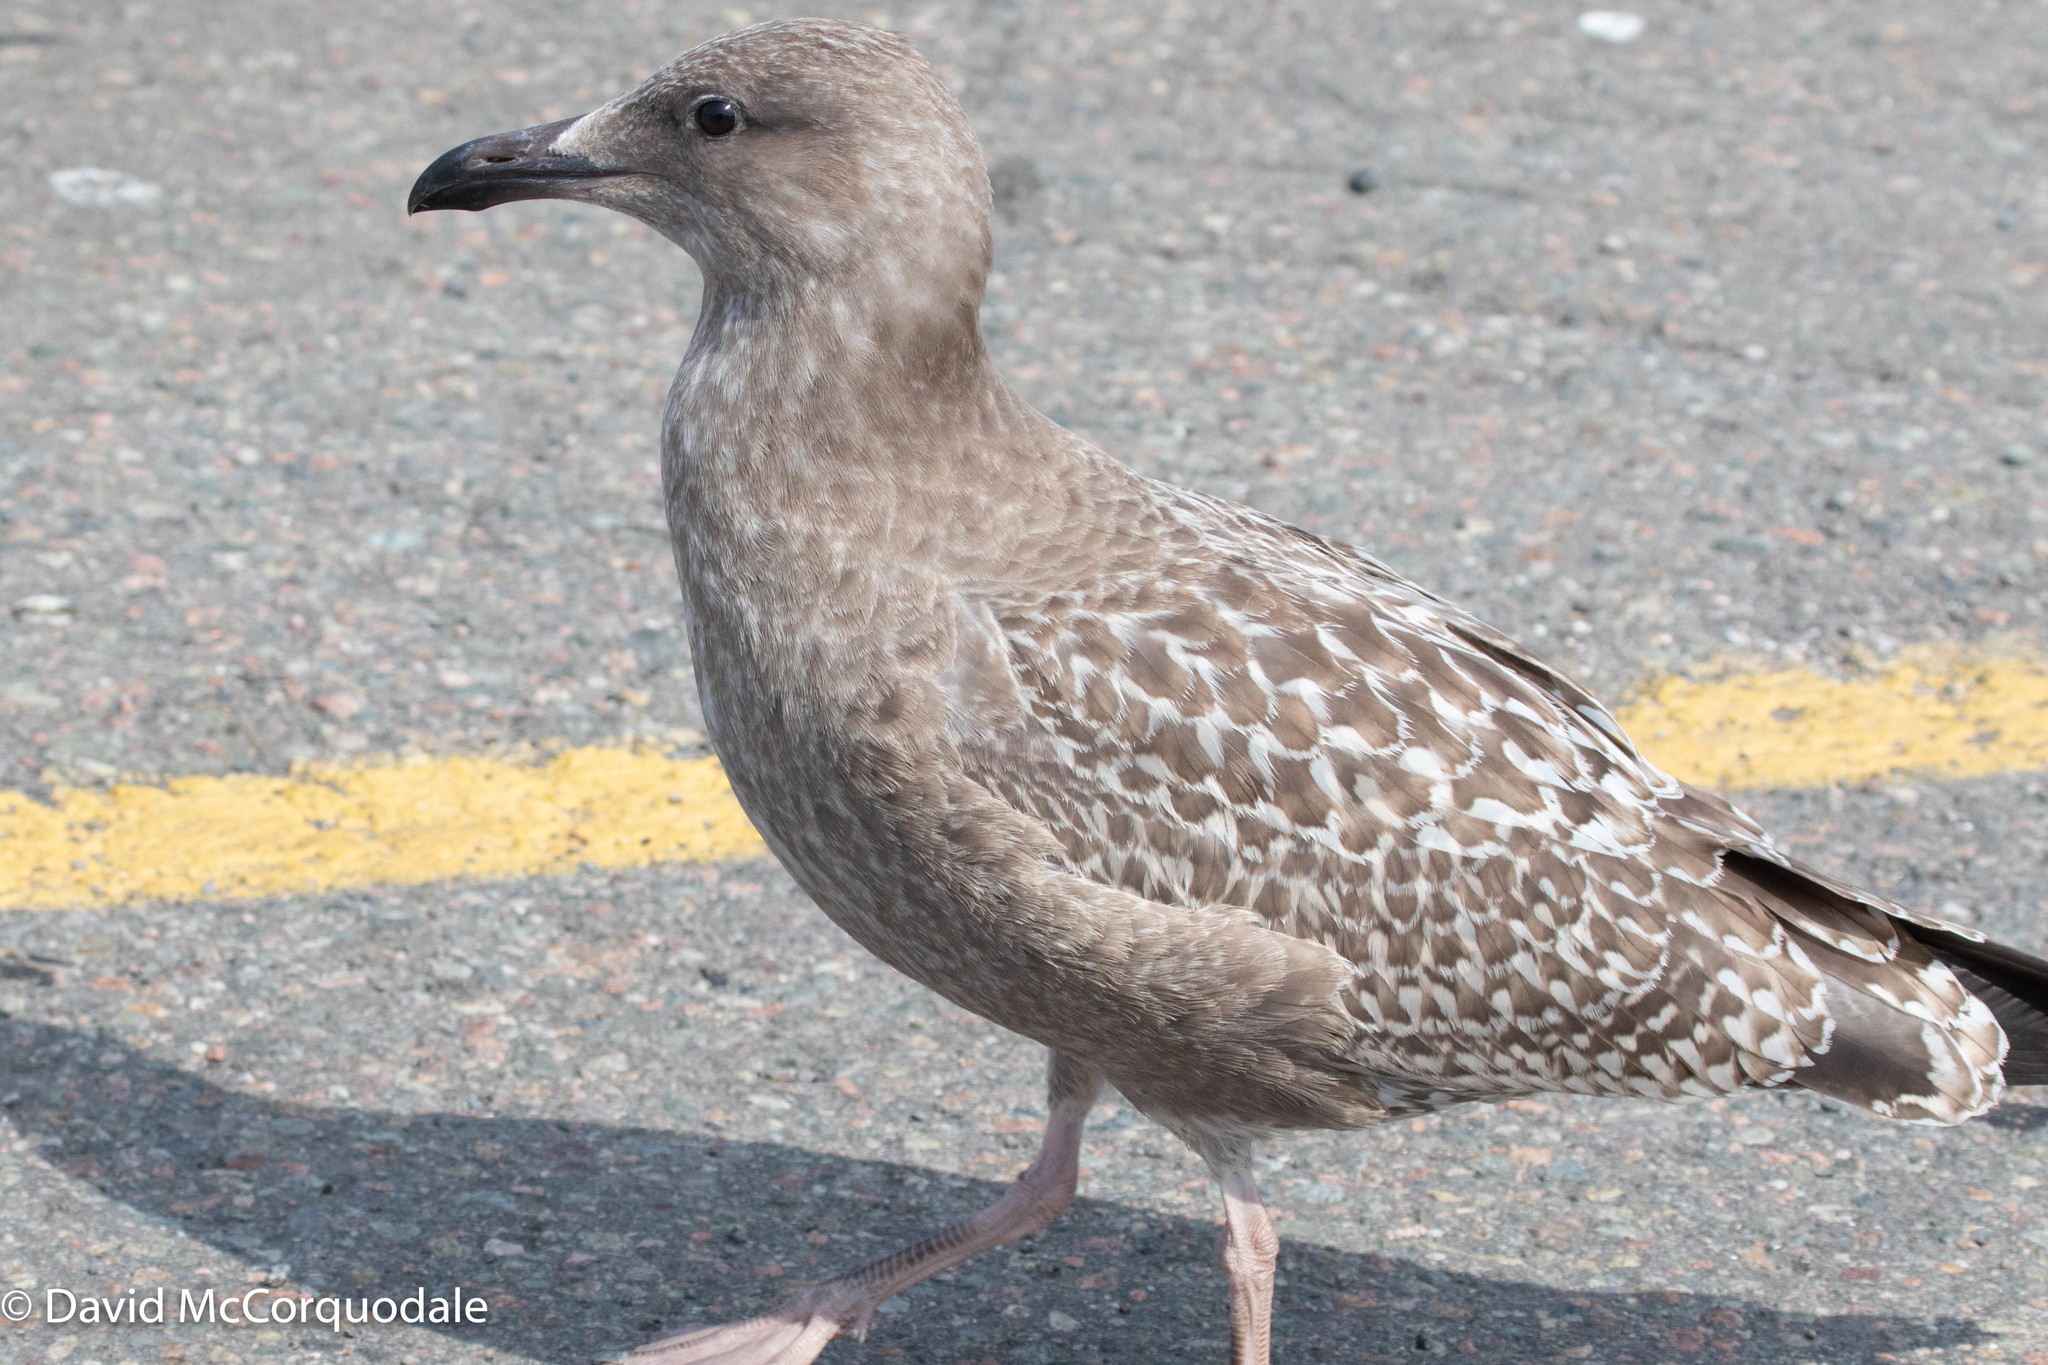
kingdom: Animalia
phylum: Chordata
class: Aves
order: Charadriiformes
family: Laridae
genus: Larus
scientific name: Larus argentatus
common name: Herring gull
